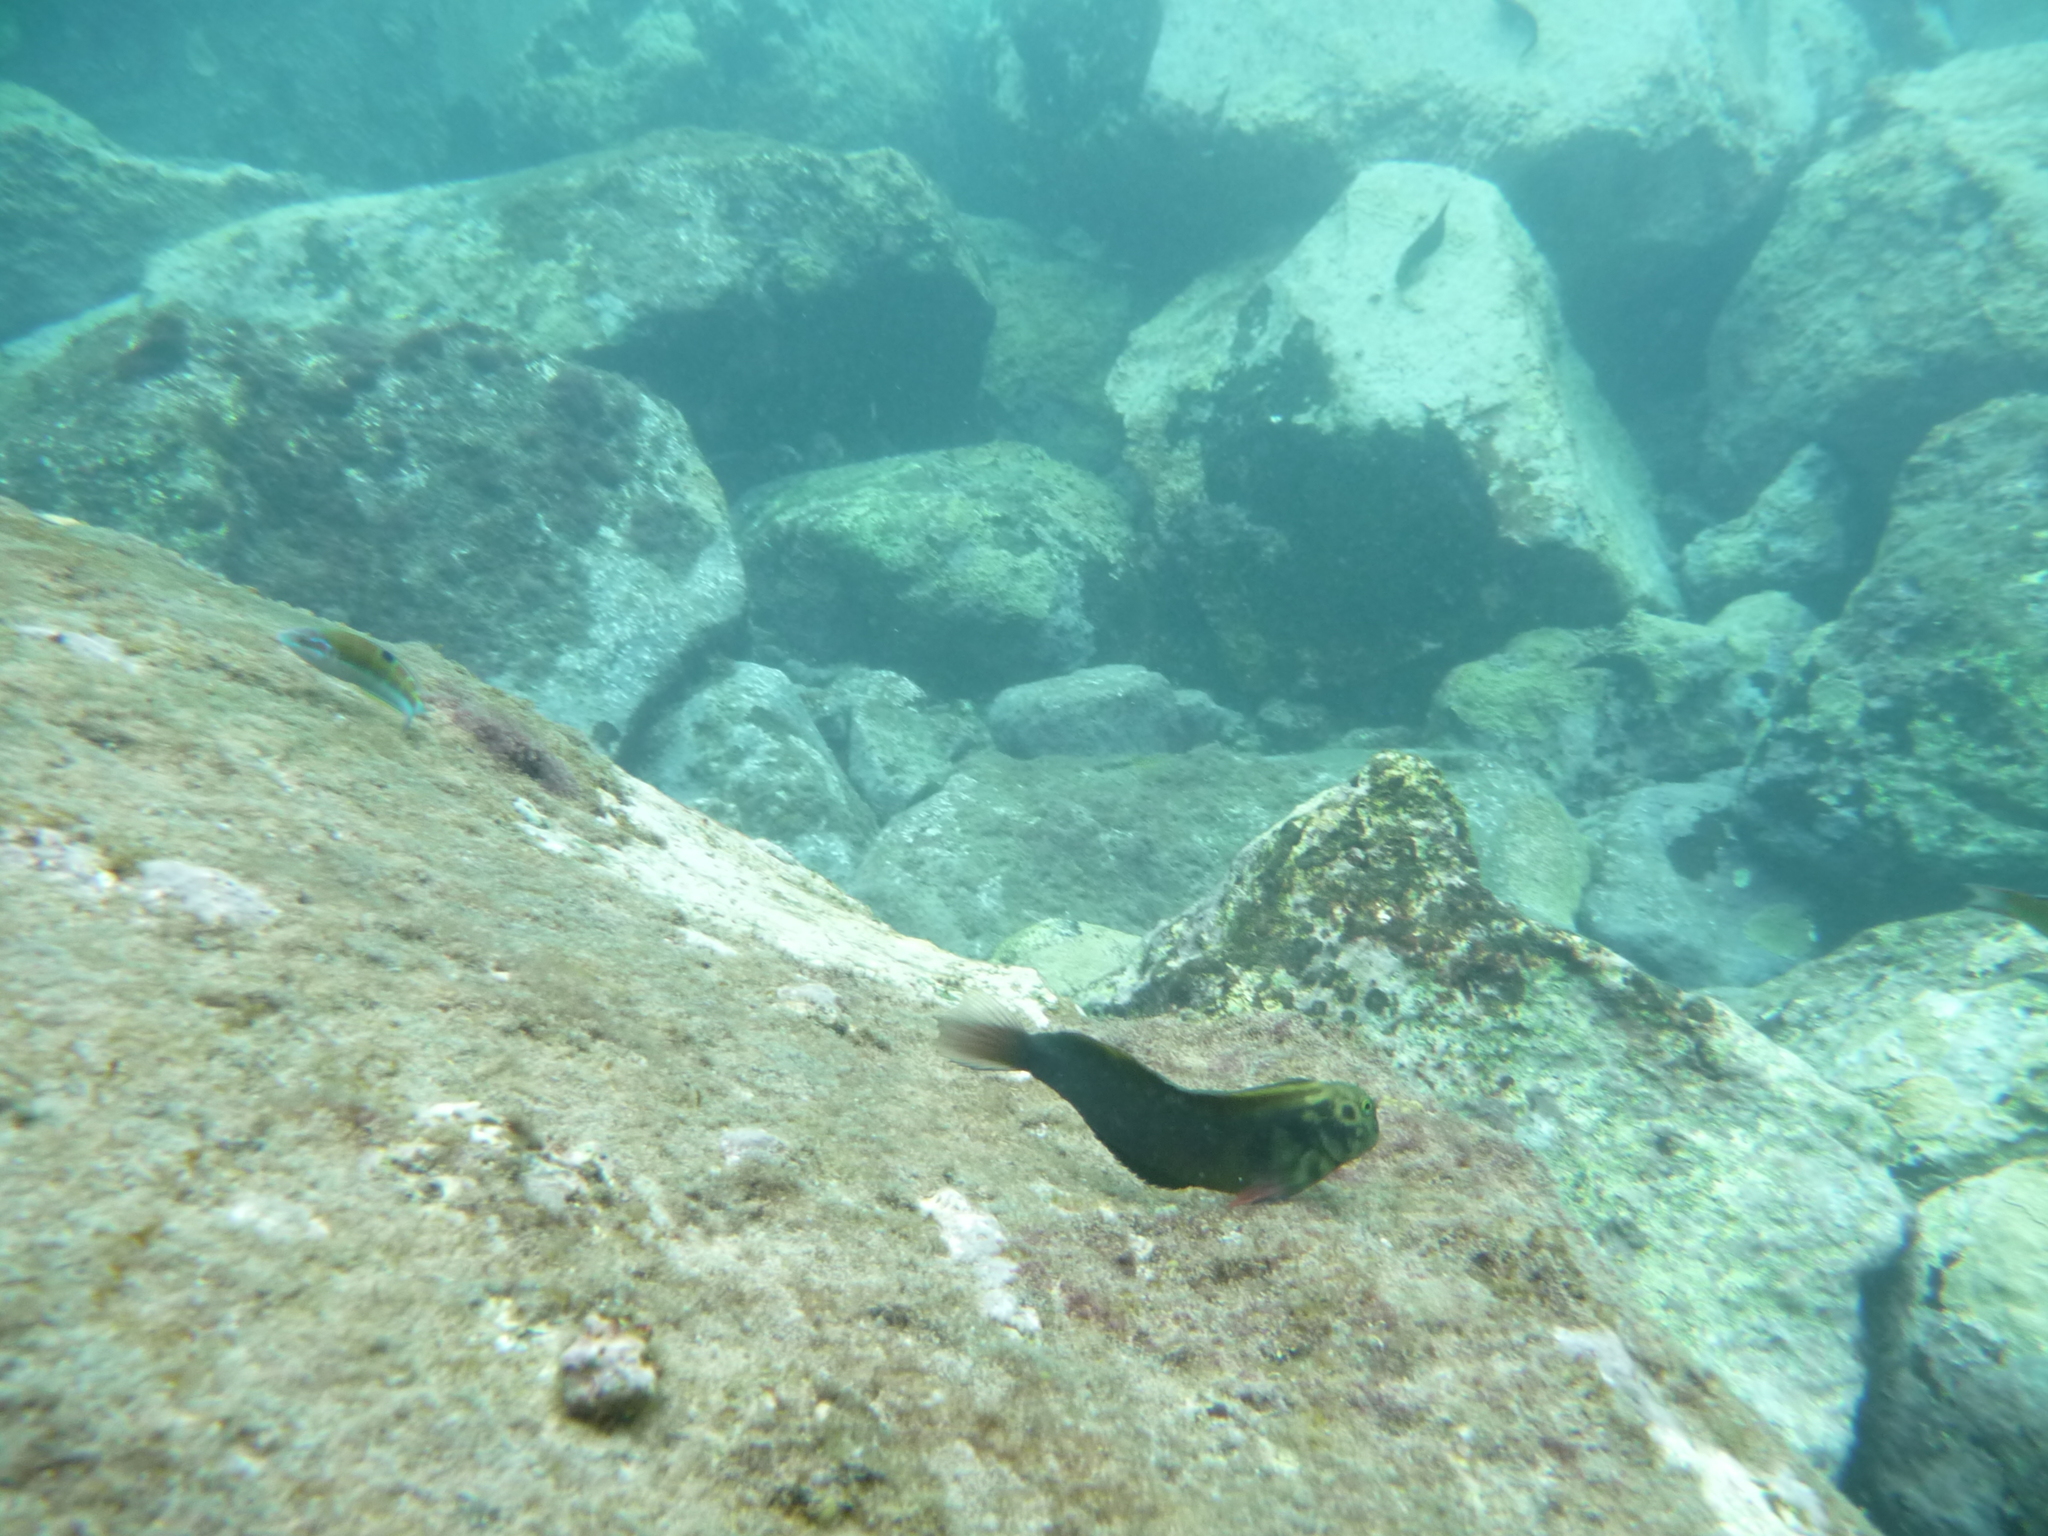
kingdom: Animalia
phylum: Chordata
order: Perciformes
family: Blenniidae
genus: Ophioblennius
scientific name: Ophioblennius atlanticus
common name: Redlip blenny
